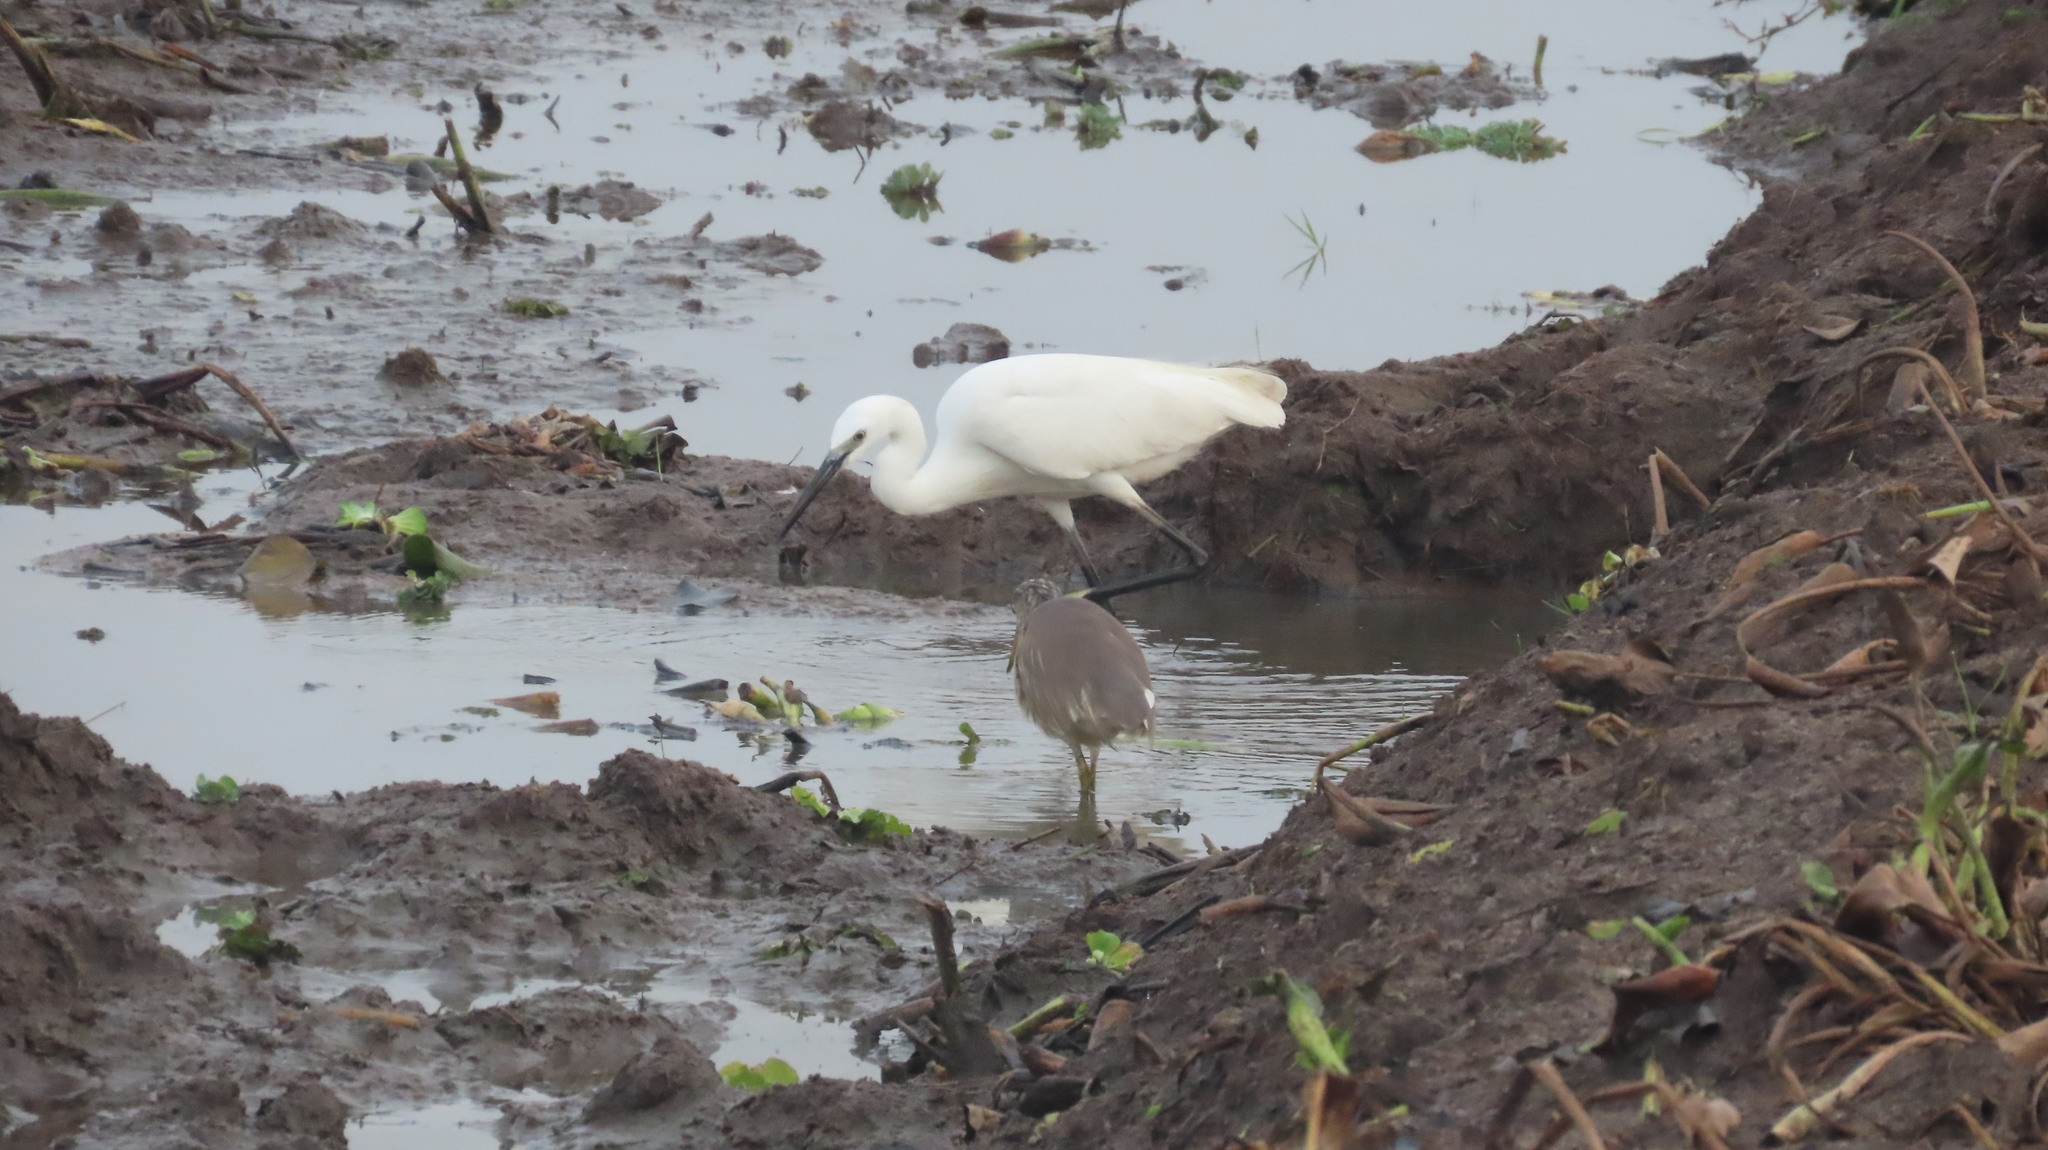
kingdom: Animalia
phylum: Chordata
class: Aves
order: Pelecaniformes
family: Ardeidae
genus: Egretta
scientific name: Egretta garzetta
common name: Little egret
